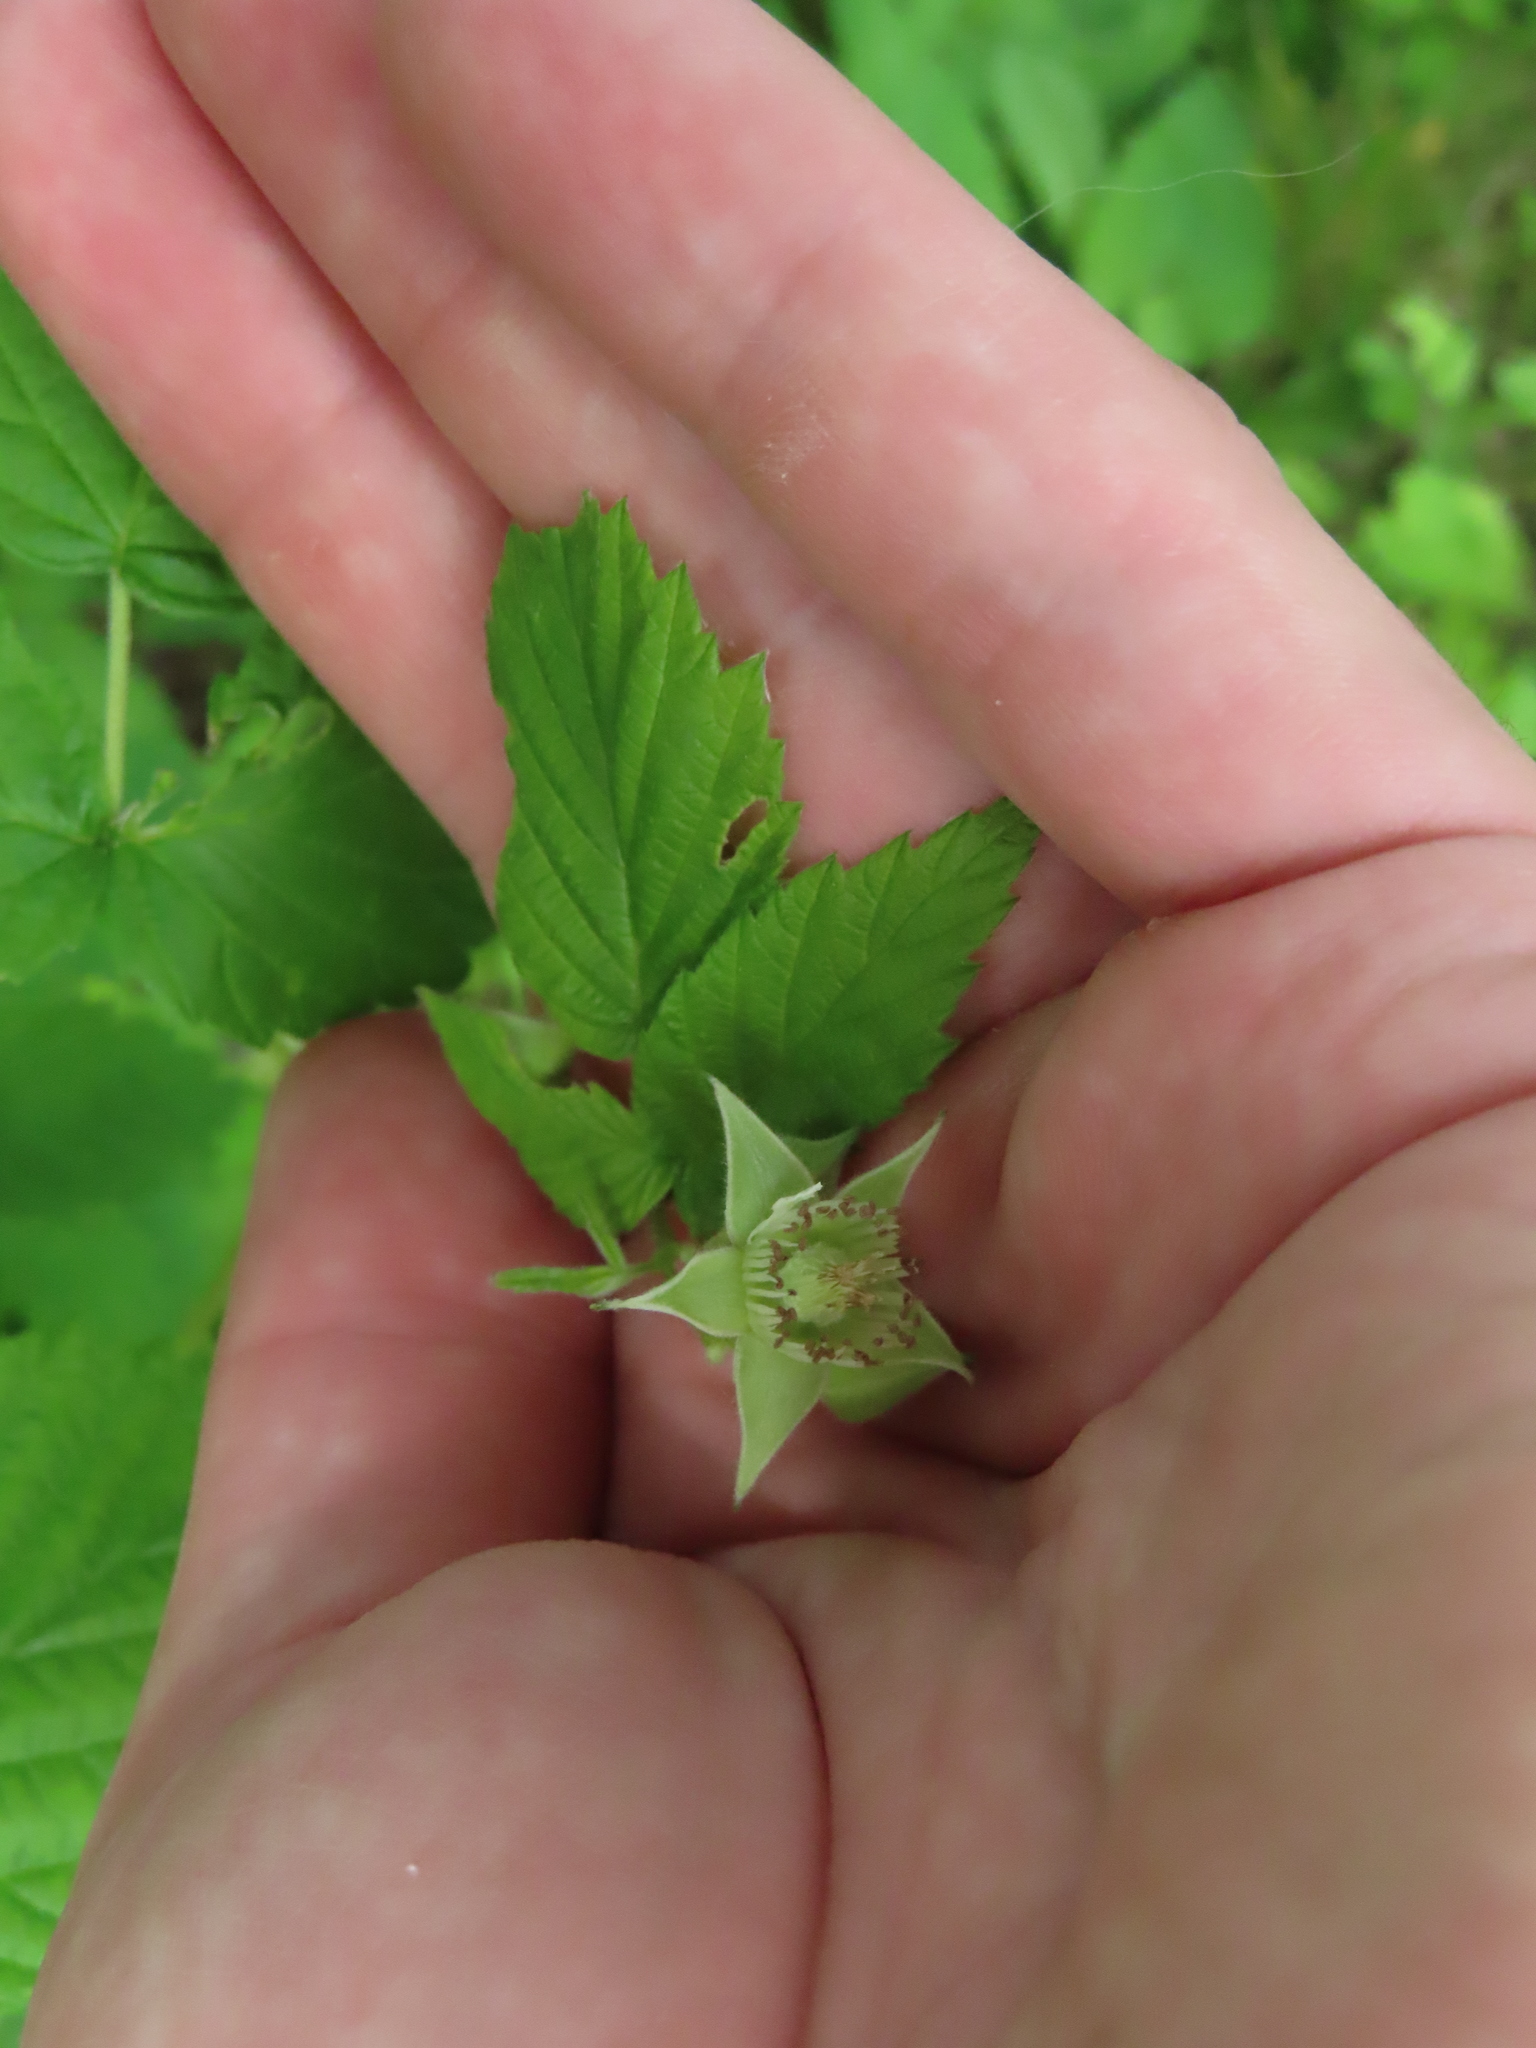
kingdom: Plantae
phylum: Tracheophyta
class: Magnoliopsida
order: Rosales
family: Rosaceae
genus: Rubus
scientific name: Rubus occidentalis
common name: Black raspberry
